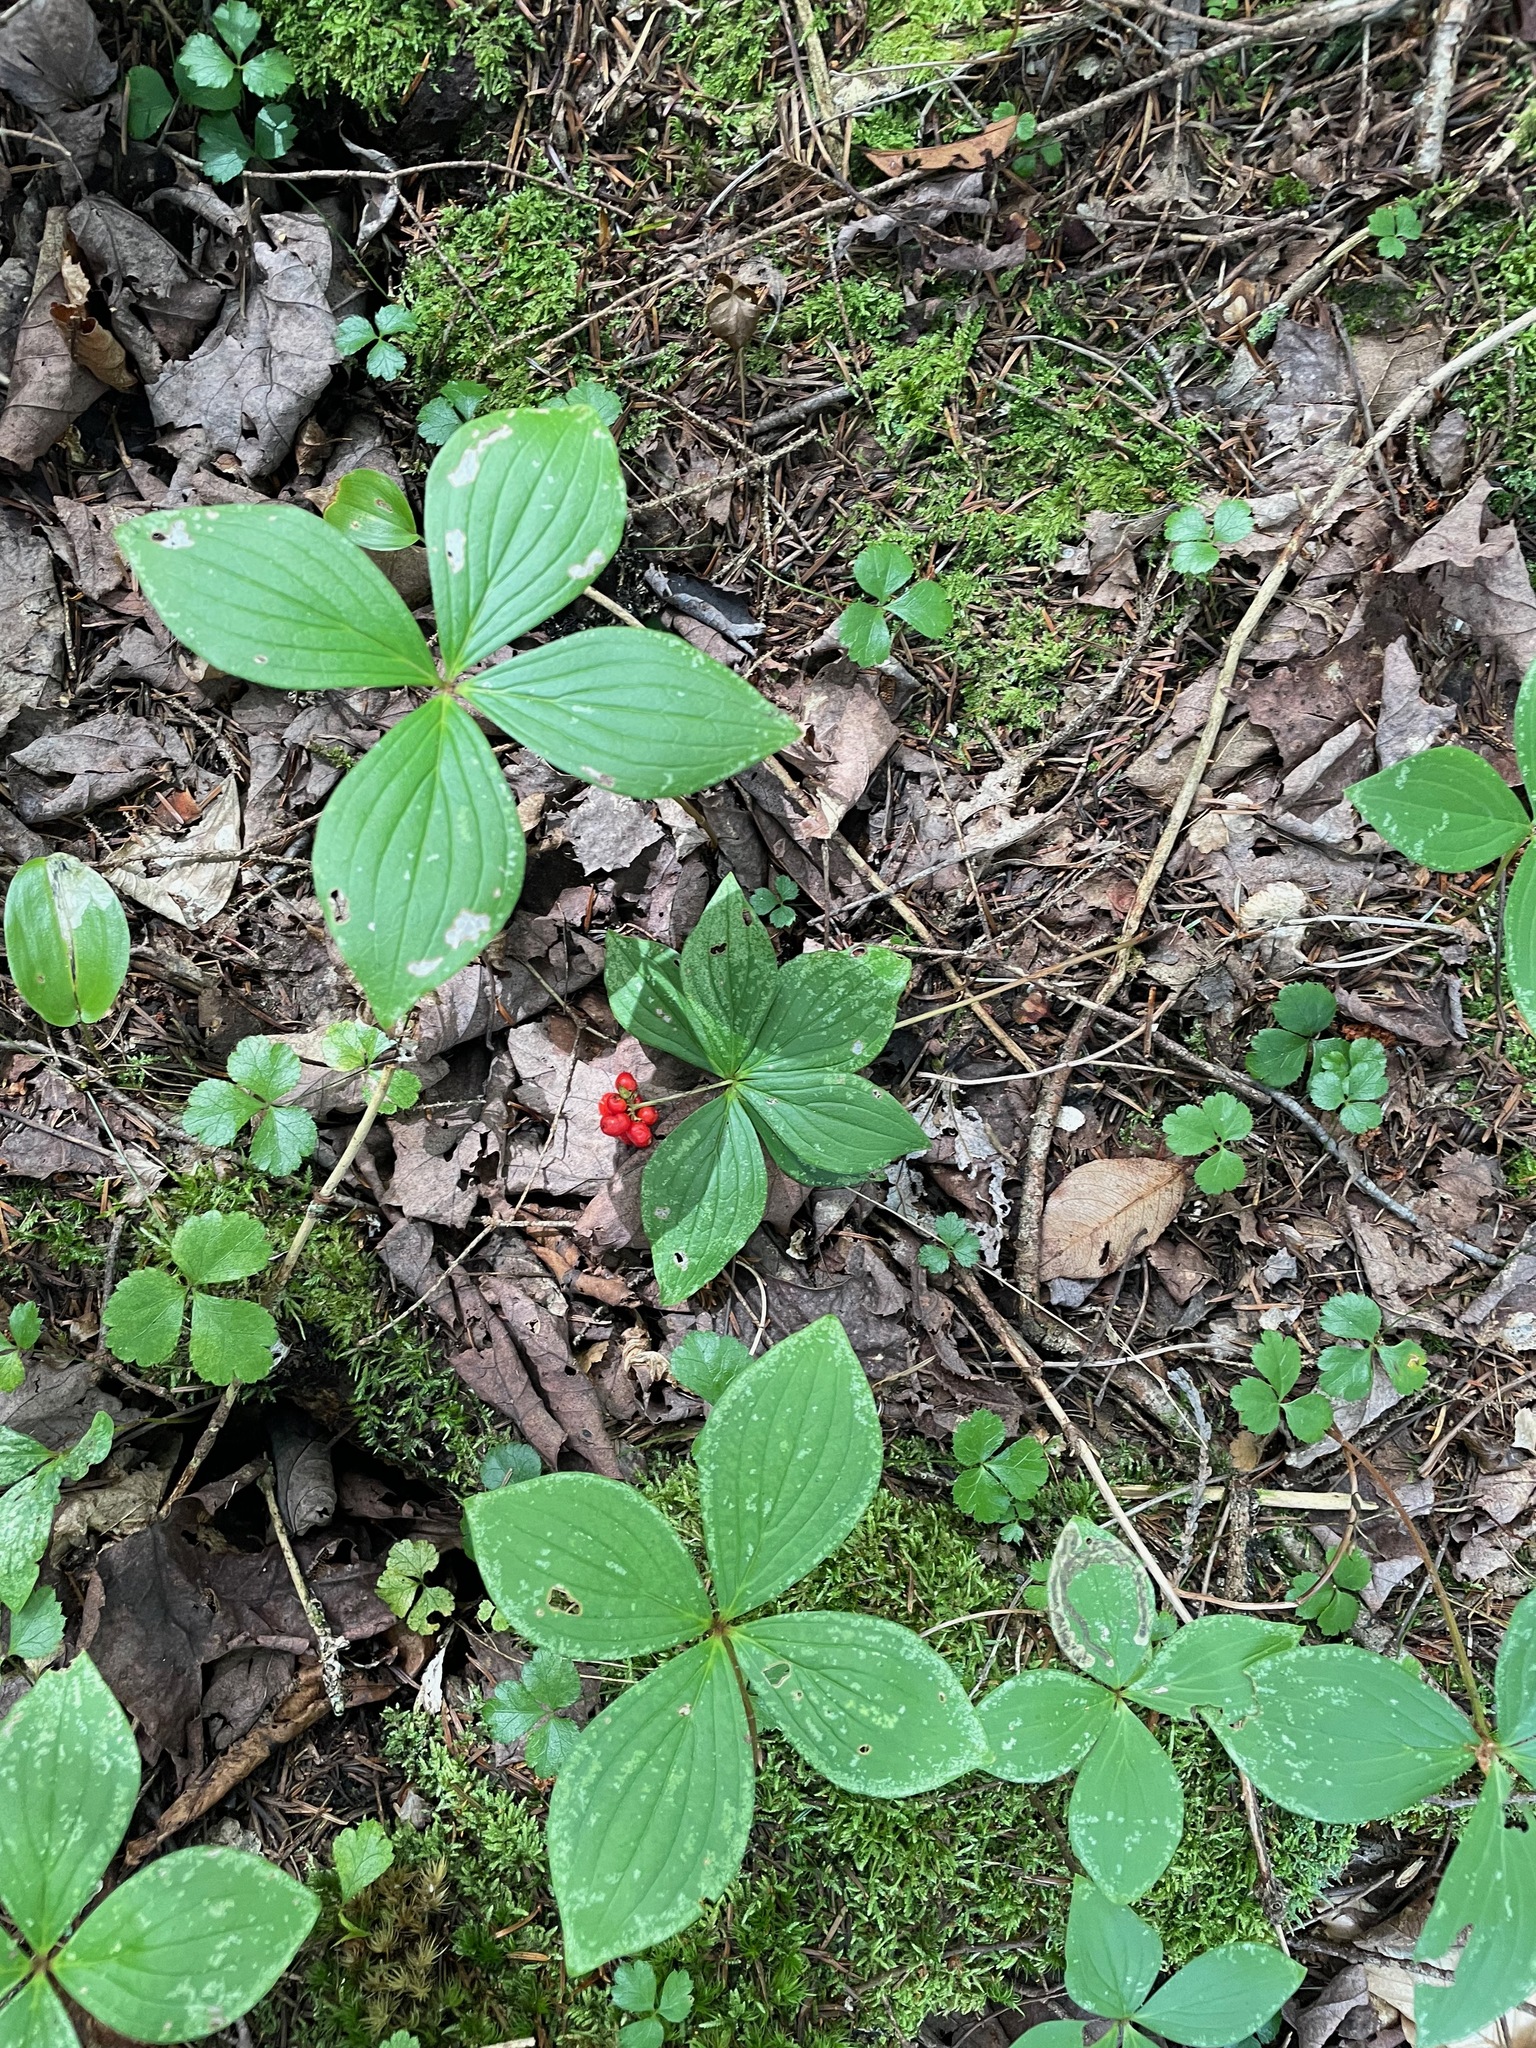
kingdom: Plantae
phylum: Tracheophyta
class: Magnoliopsida
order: Cornales
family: Cornaceae
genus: Cornus
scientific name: Cornus canadensis
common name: Creeping dogwood
